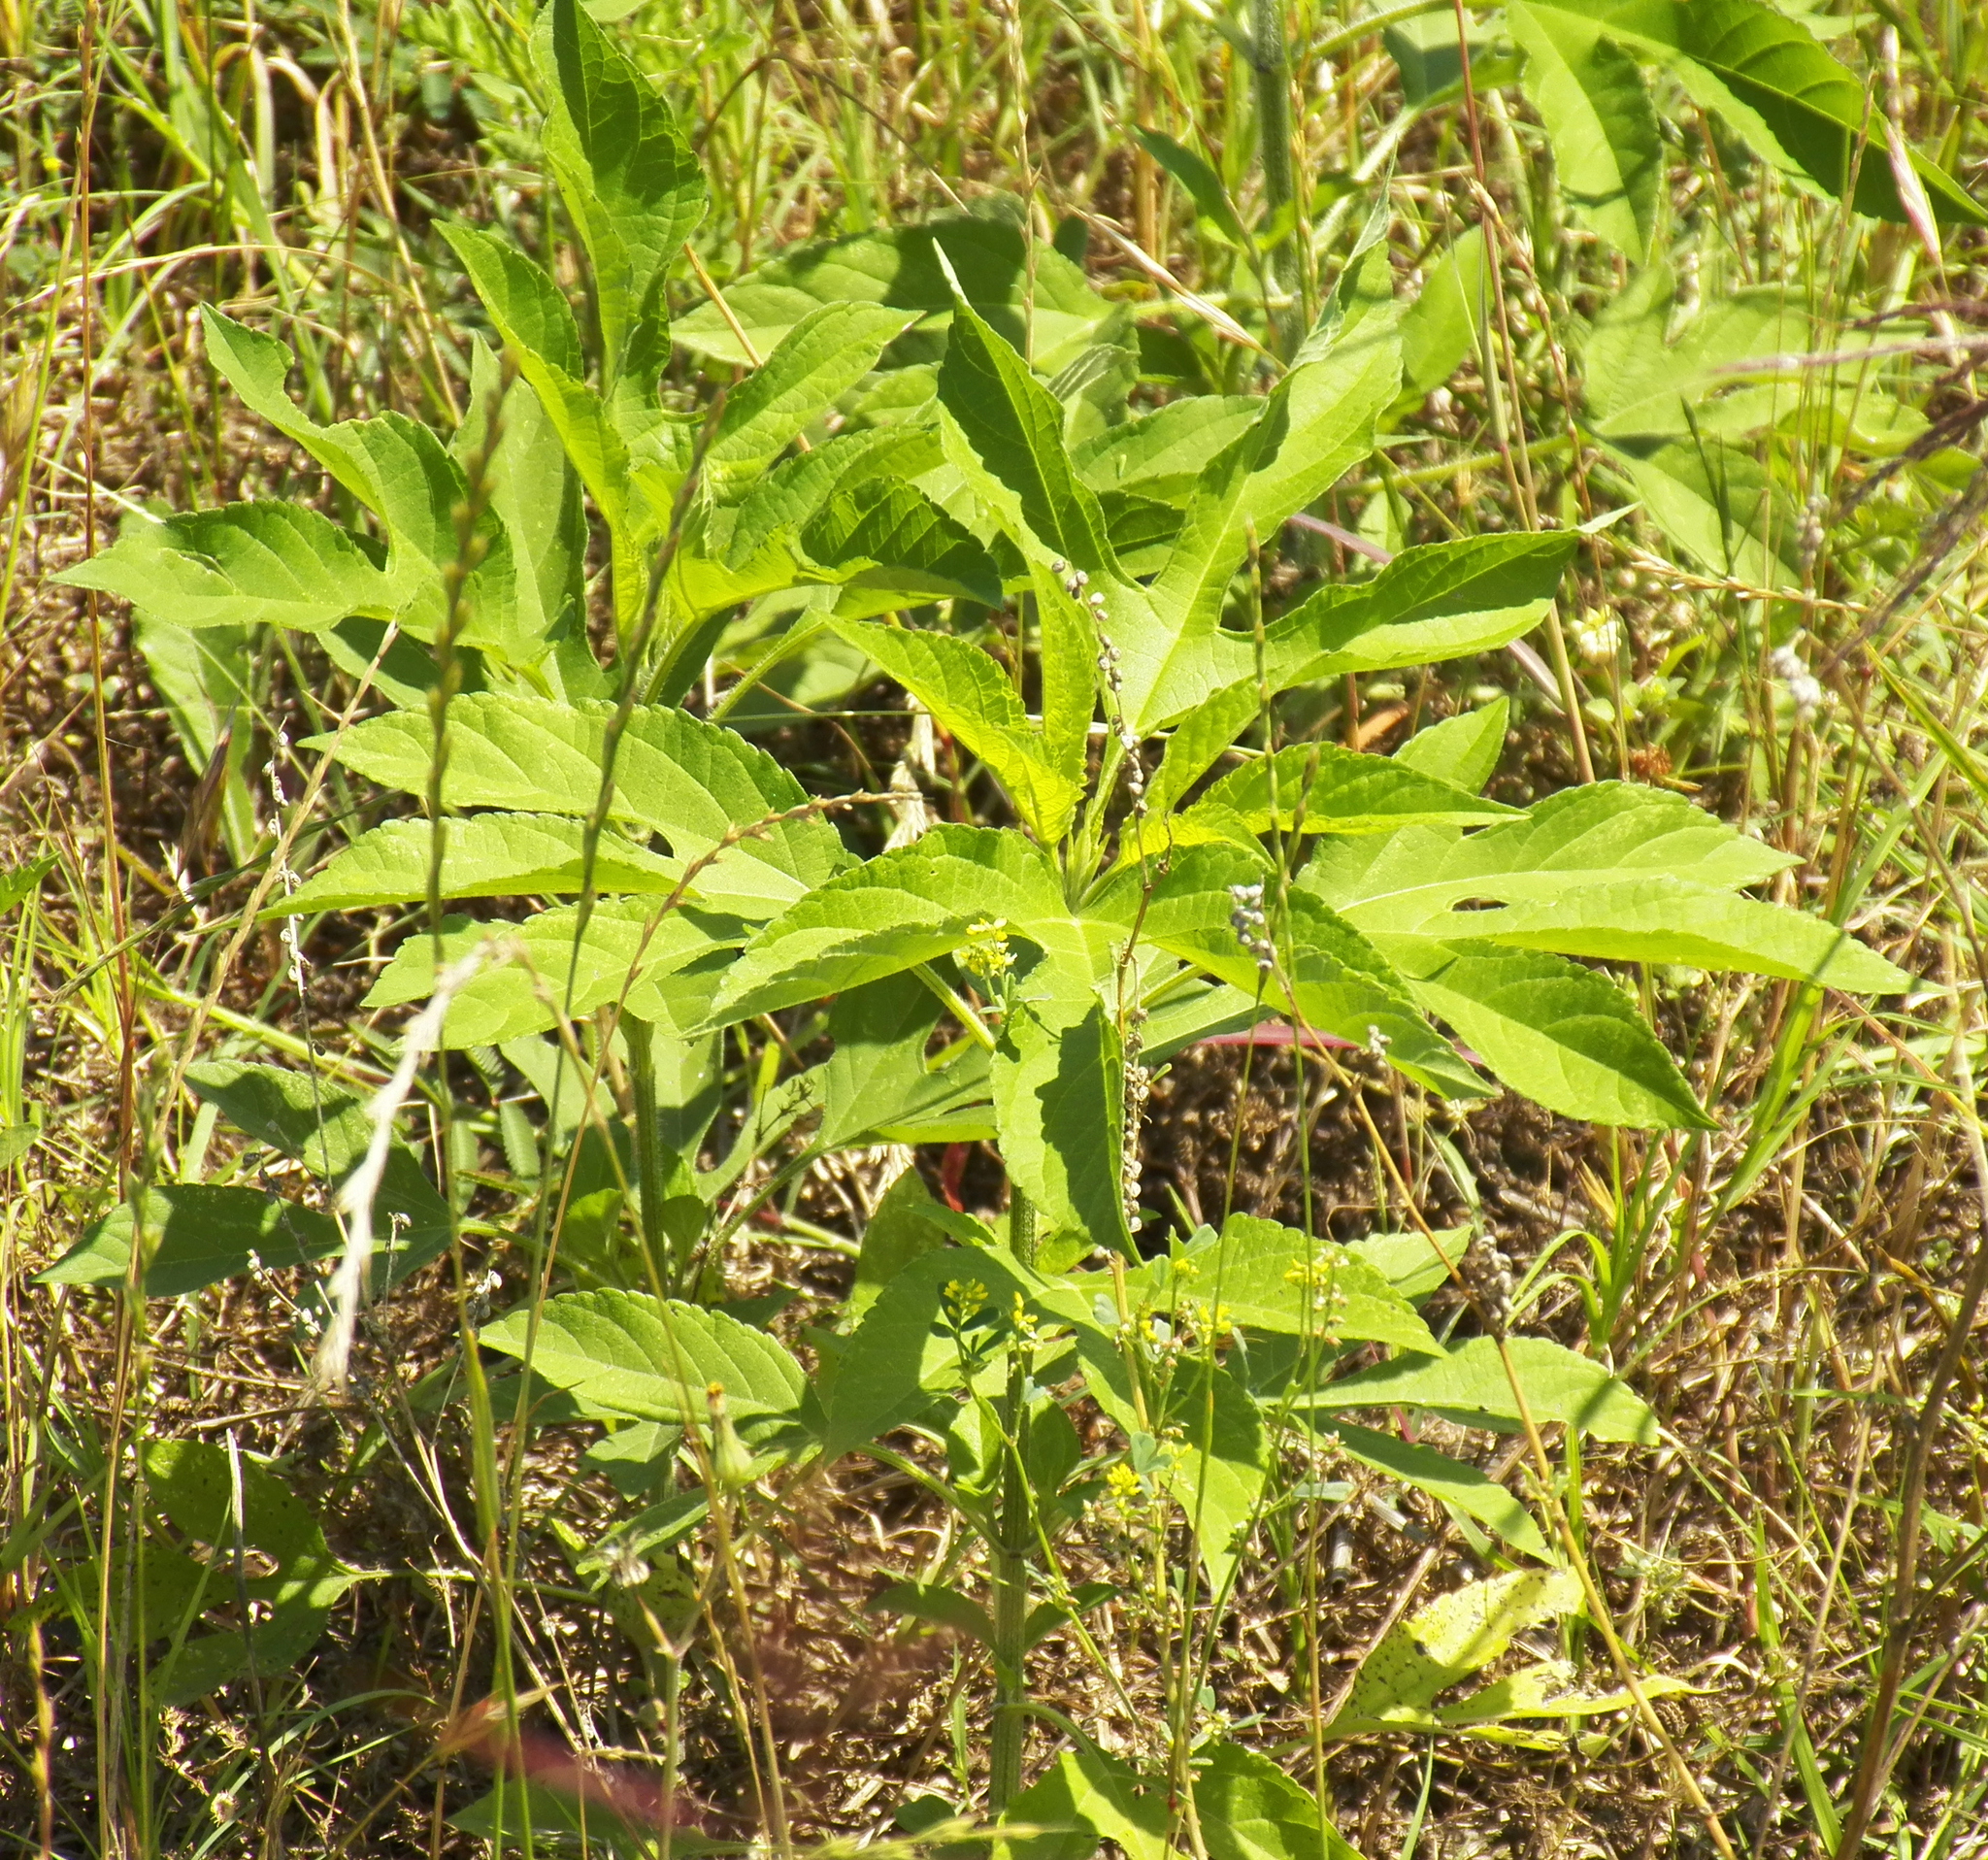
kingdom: Plantae
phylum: Tracheophyta
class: Magnoliopsida
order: Asterales
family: Asteraceae
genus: Ambrosia
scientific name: Ambrosia trifida
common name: Giant ragweed
